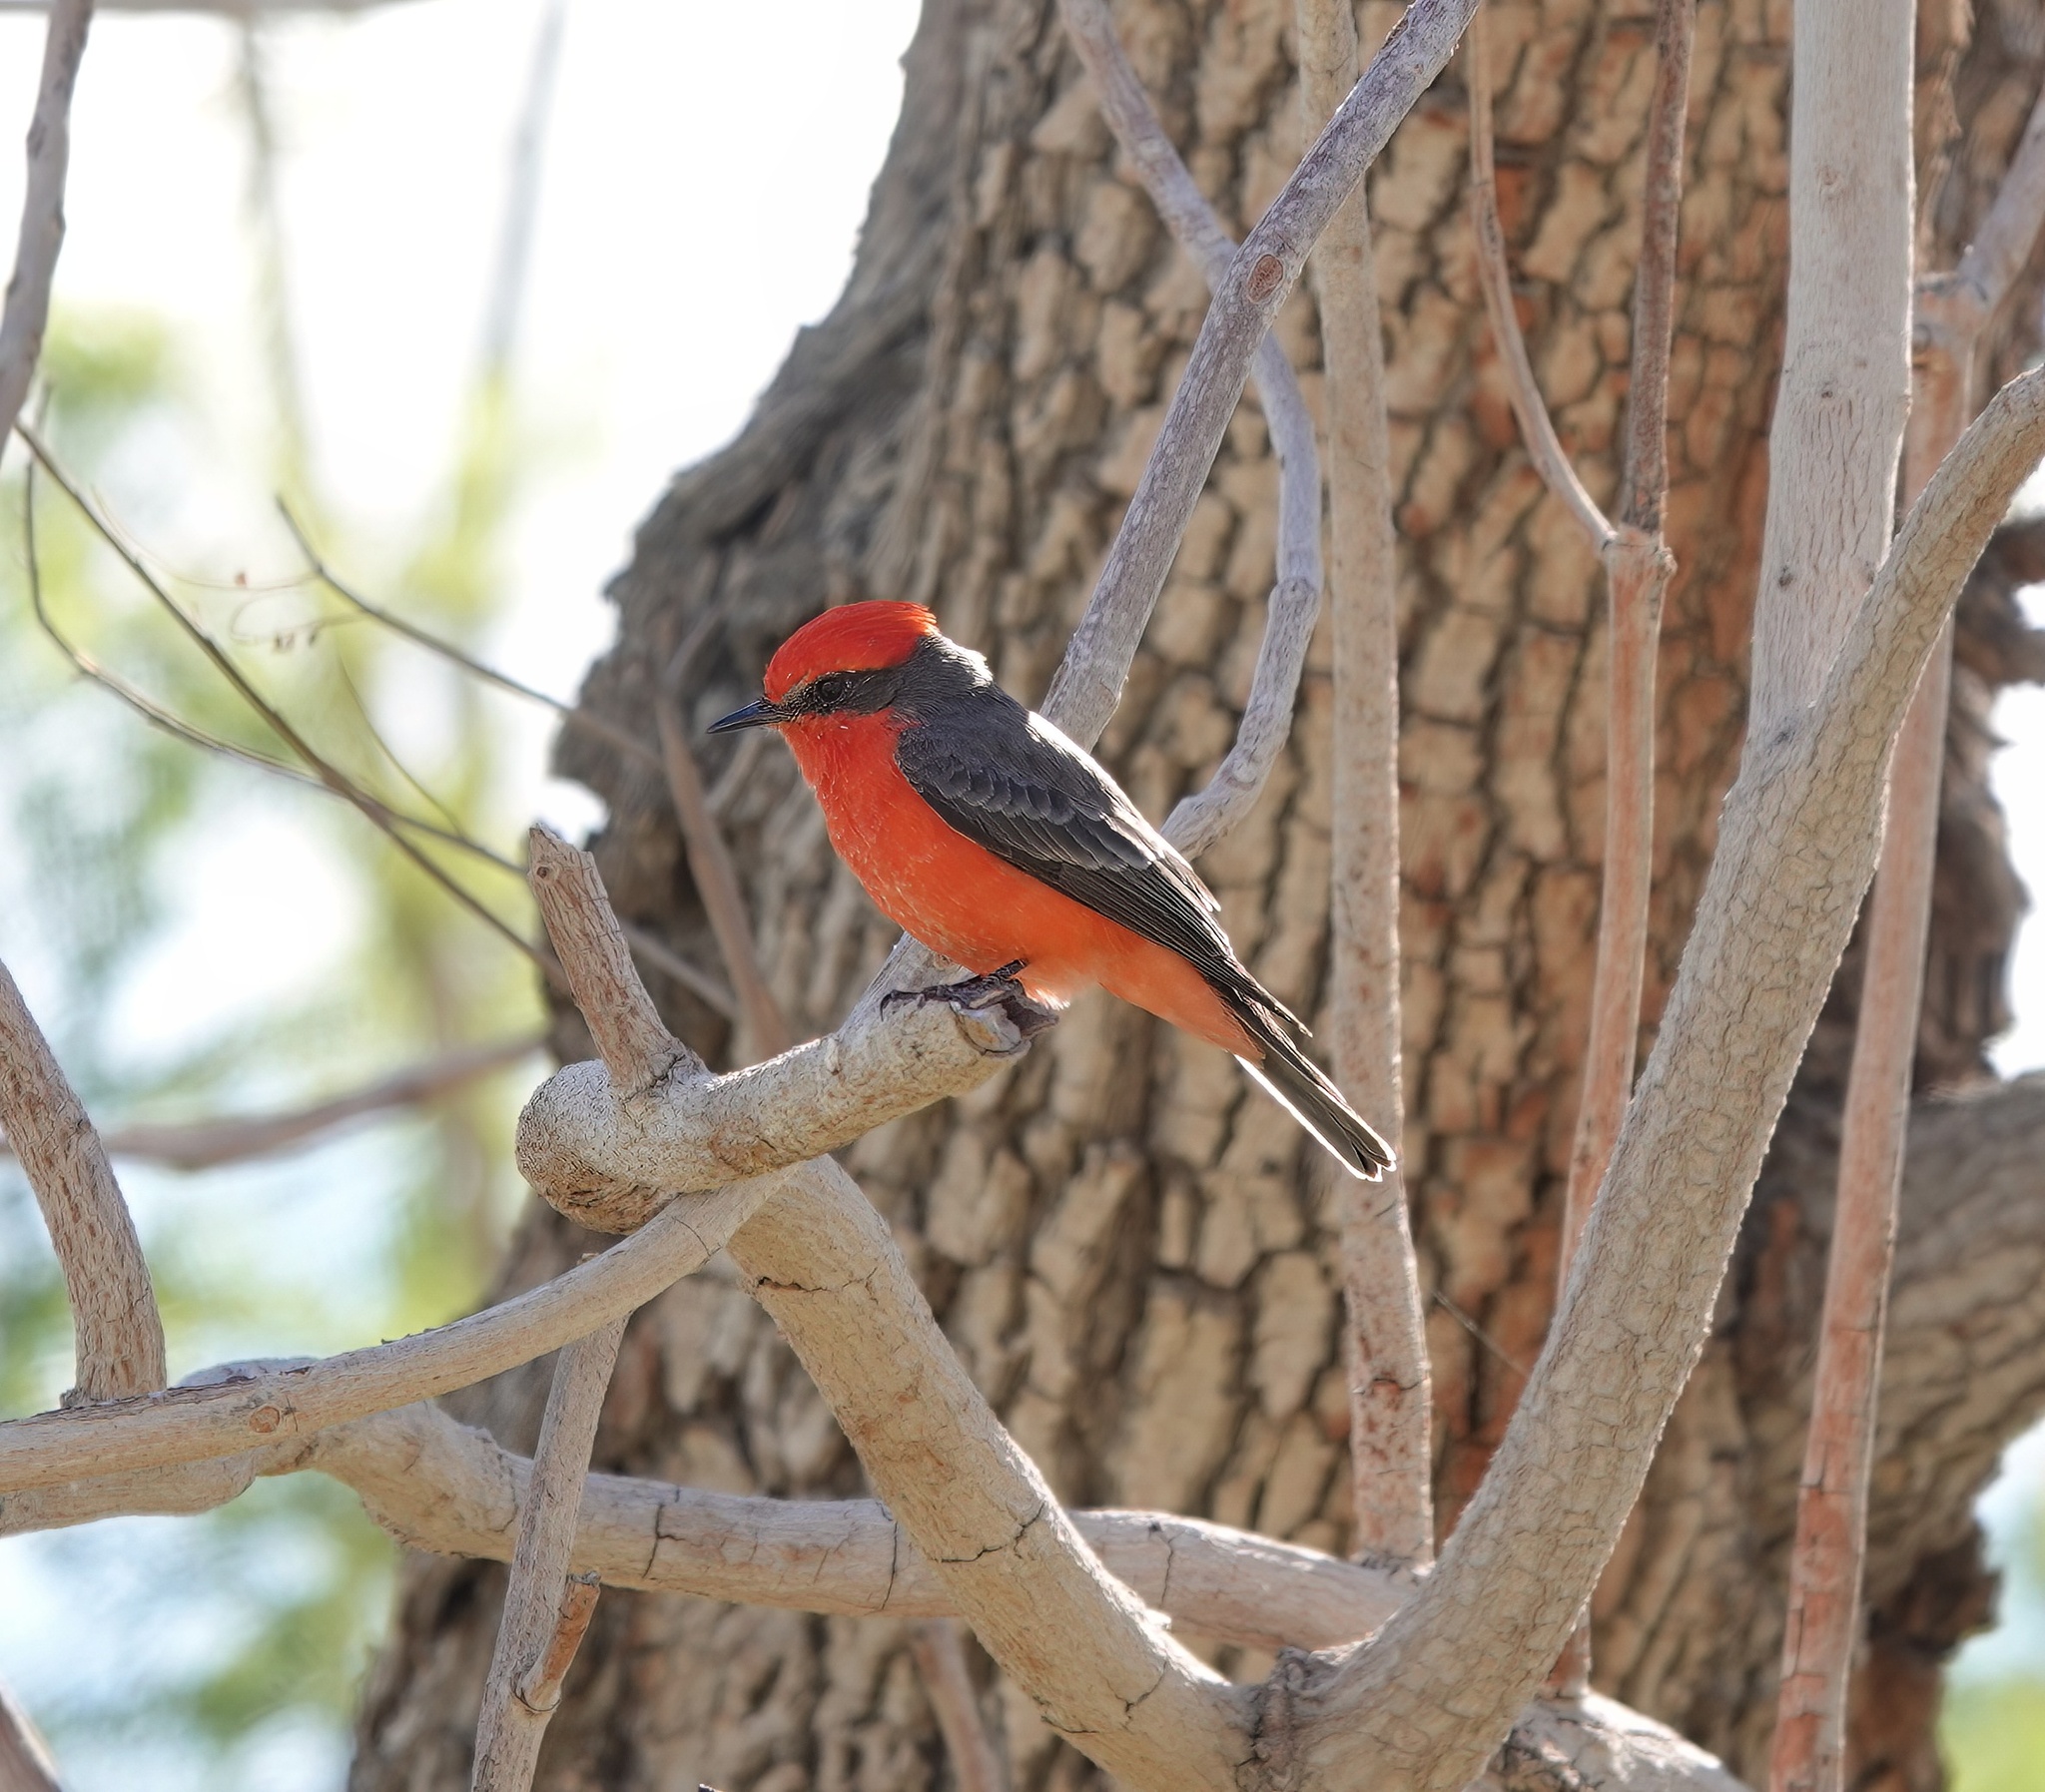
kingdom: Animalia
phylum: Chordata
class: Aves
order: Passeriformes
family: Tyrannidae
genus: Pyrocephalus
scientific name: Pyrocephalus rubinus
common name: Vermilion flycatcher
